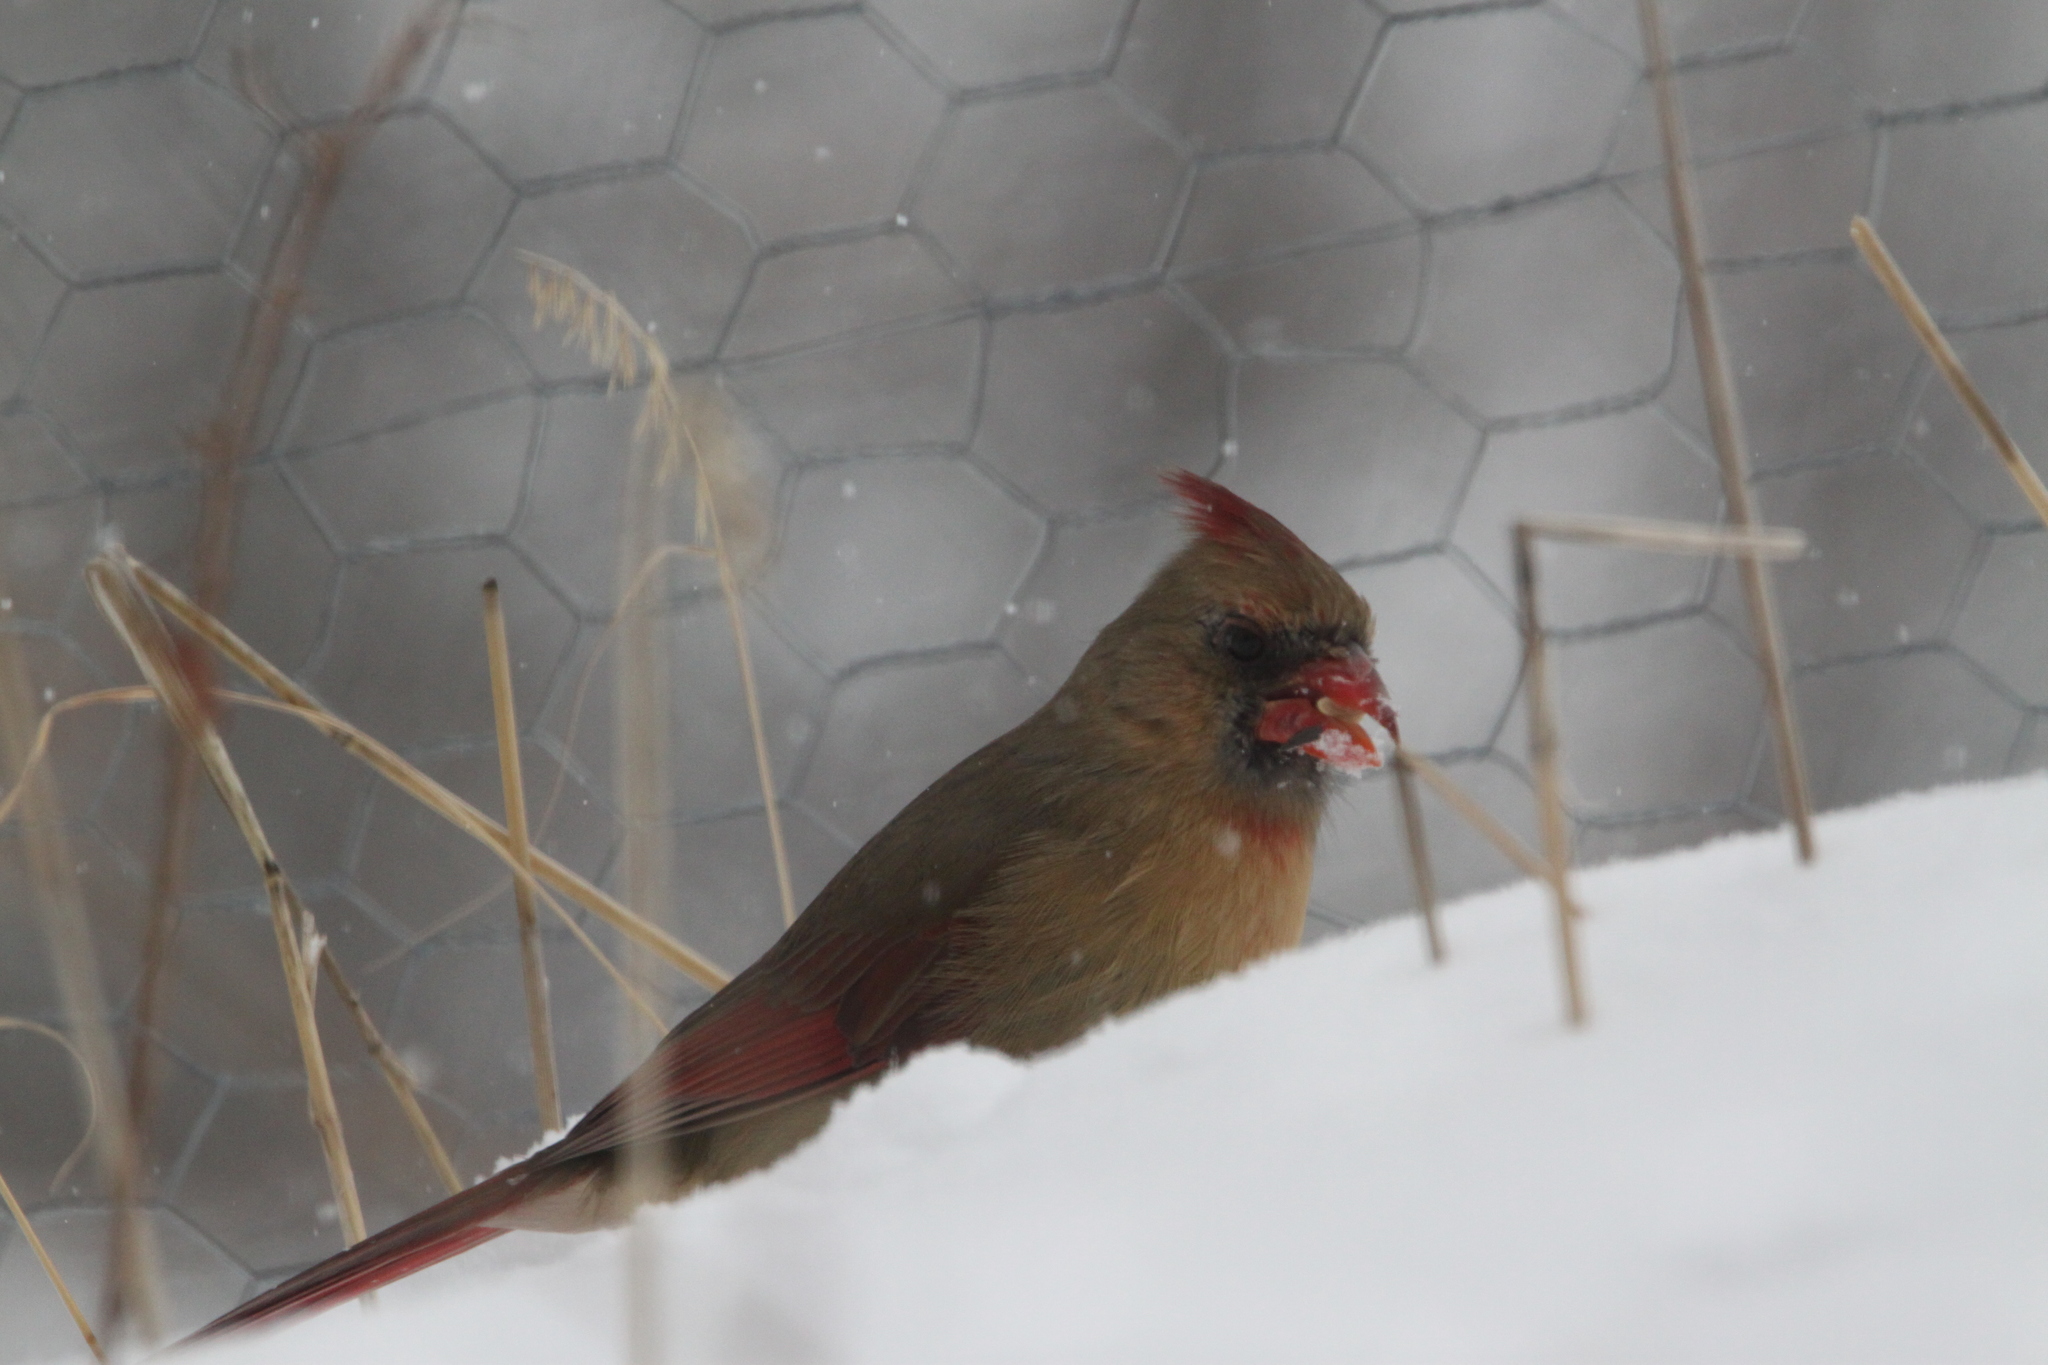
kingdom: Animalia
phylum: Chordata
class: Aves
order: Passeriformes
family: Cardinalidae
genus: Cardinalis
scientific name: Cardinalis cardinalis
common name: Northern cardinal
